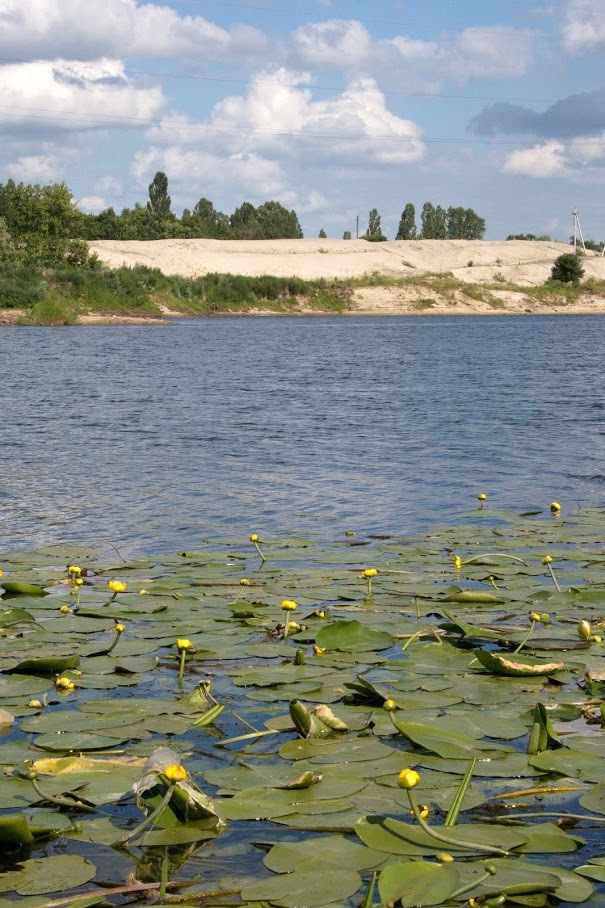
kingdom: Plantae
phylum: Tracheophyta
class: Magnoliopsida
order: Nymphaeales
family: Nymphaeaceae
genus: Nuphar
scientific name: Nuphar lutea
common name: Yellow water-lily
